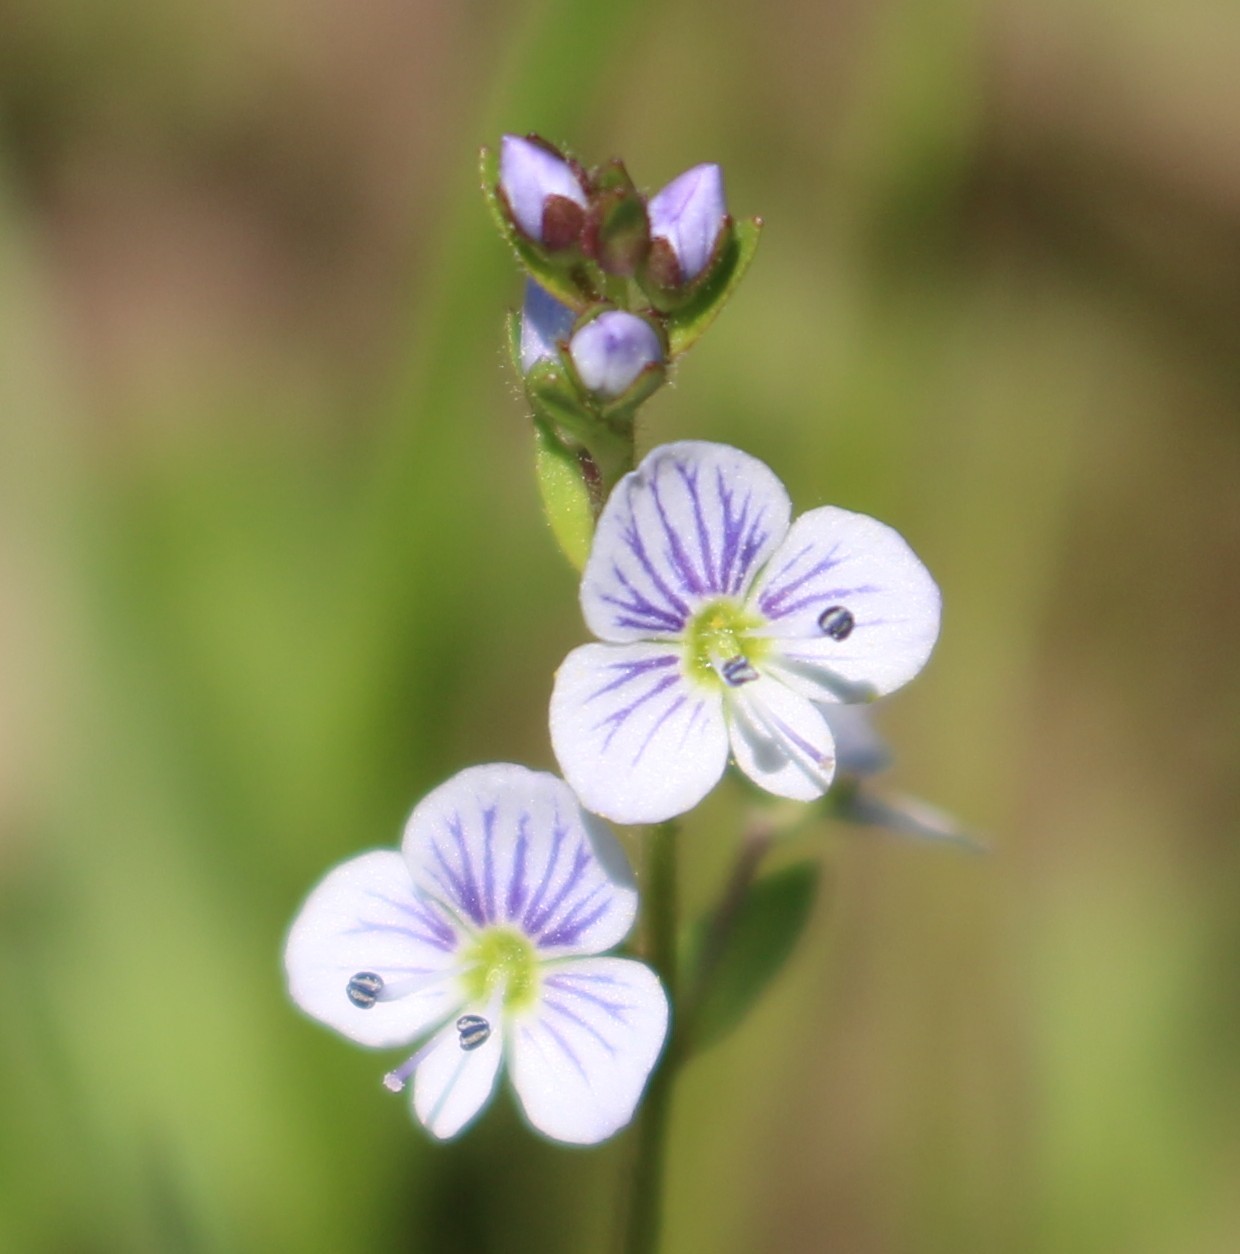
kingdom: Plantae
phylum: Tracheophyta
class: Magnoliopsida
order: Lamiales
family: Plantaginaceae
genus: Veronica
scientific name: Veronica serpyllifolia
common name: Thyme-leaved speedwell
